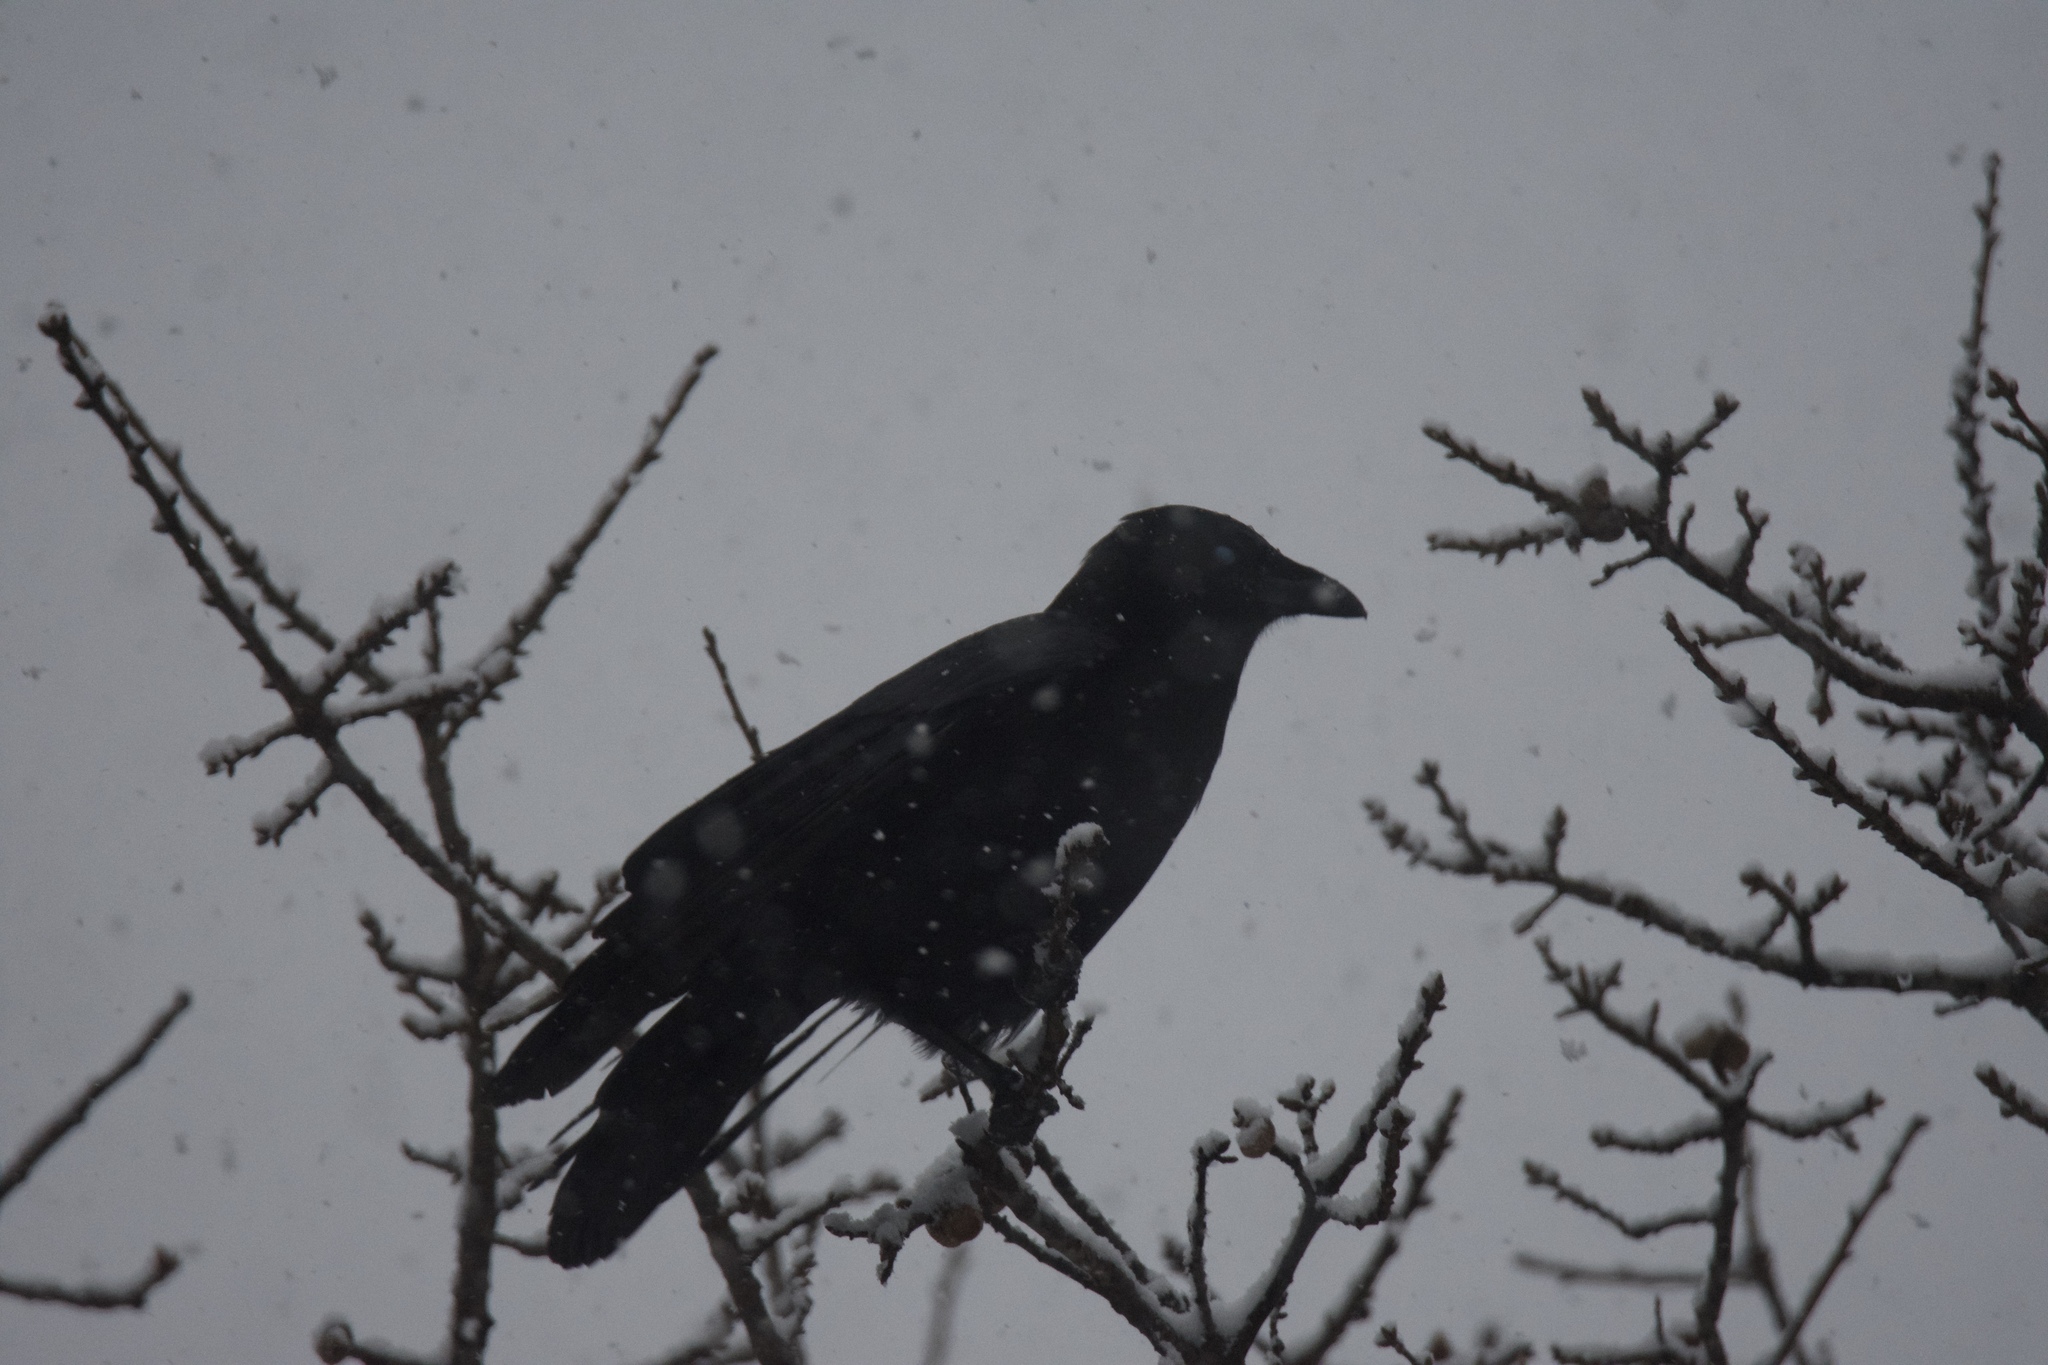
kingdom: Animalia
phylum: Chordata
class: Aves
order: Passeriformes
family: Corvidae
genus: Corvus
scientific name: Corvus brachyrhynchos
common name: American crow
